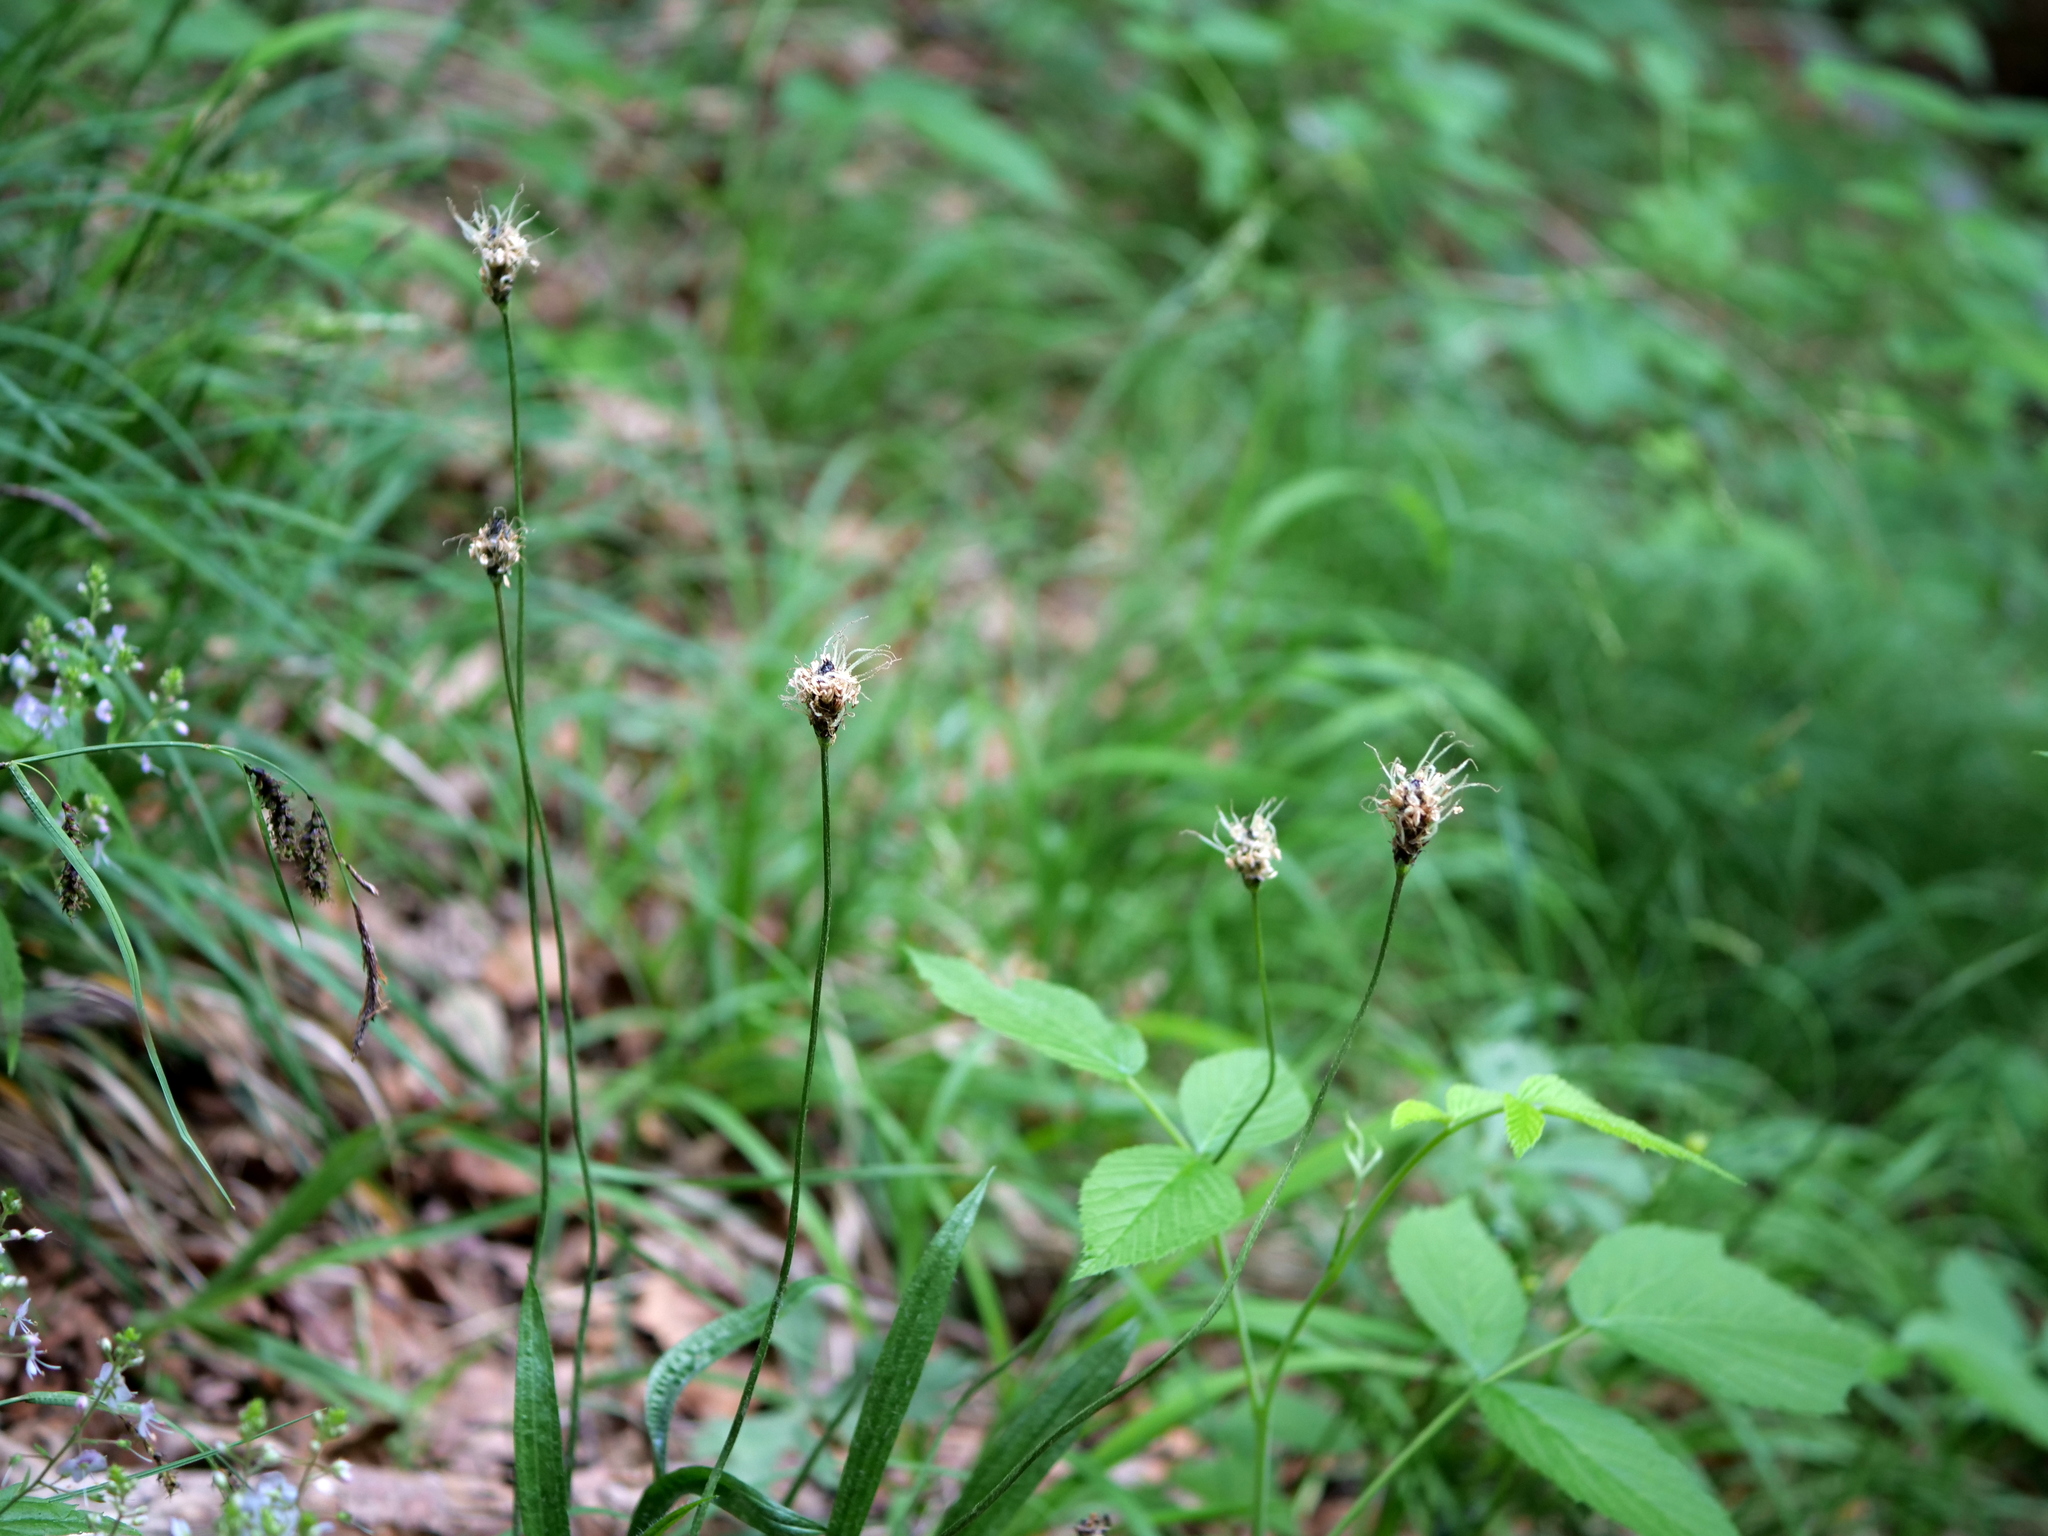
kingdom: Plantae
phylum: Tracheophyta
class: Magnoliopsida
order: Lamiales
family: Plantaginaceae
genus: Plantago
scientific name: Plantago atrata
